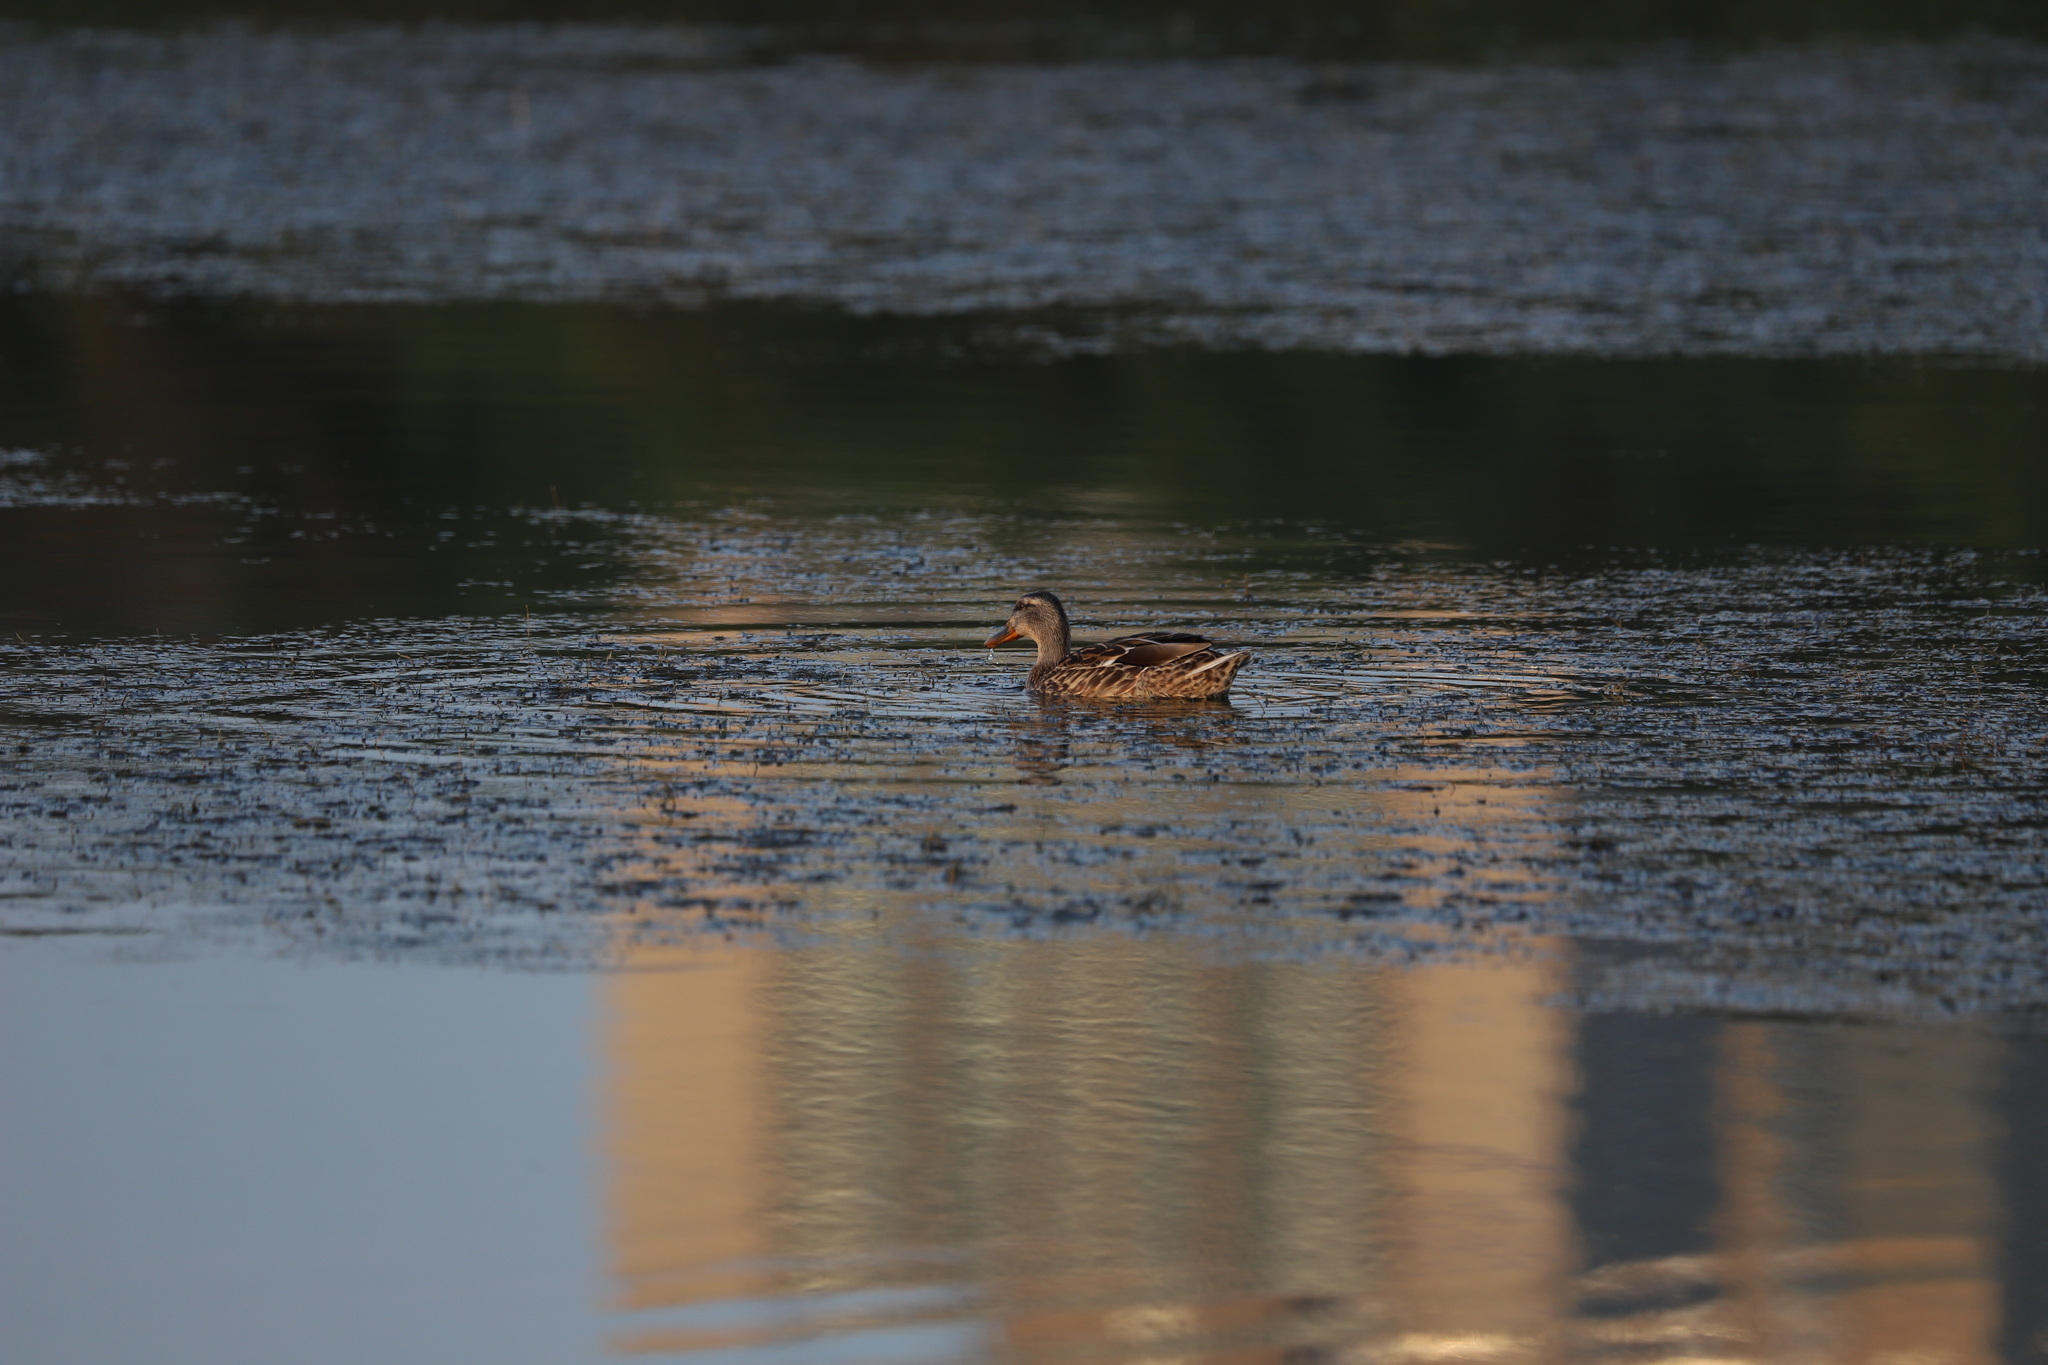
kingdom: Animalia
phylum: Chordata
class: Aves
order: Anseriformes
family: Anatidae
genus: Anas
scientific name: Anas platyrhynchos
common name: Mallard
